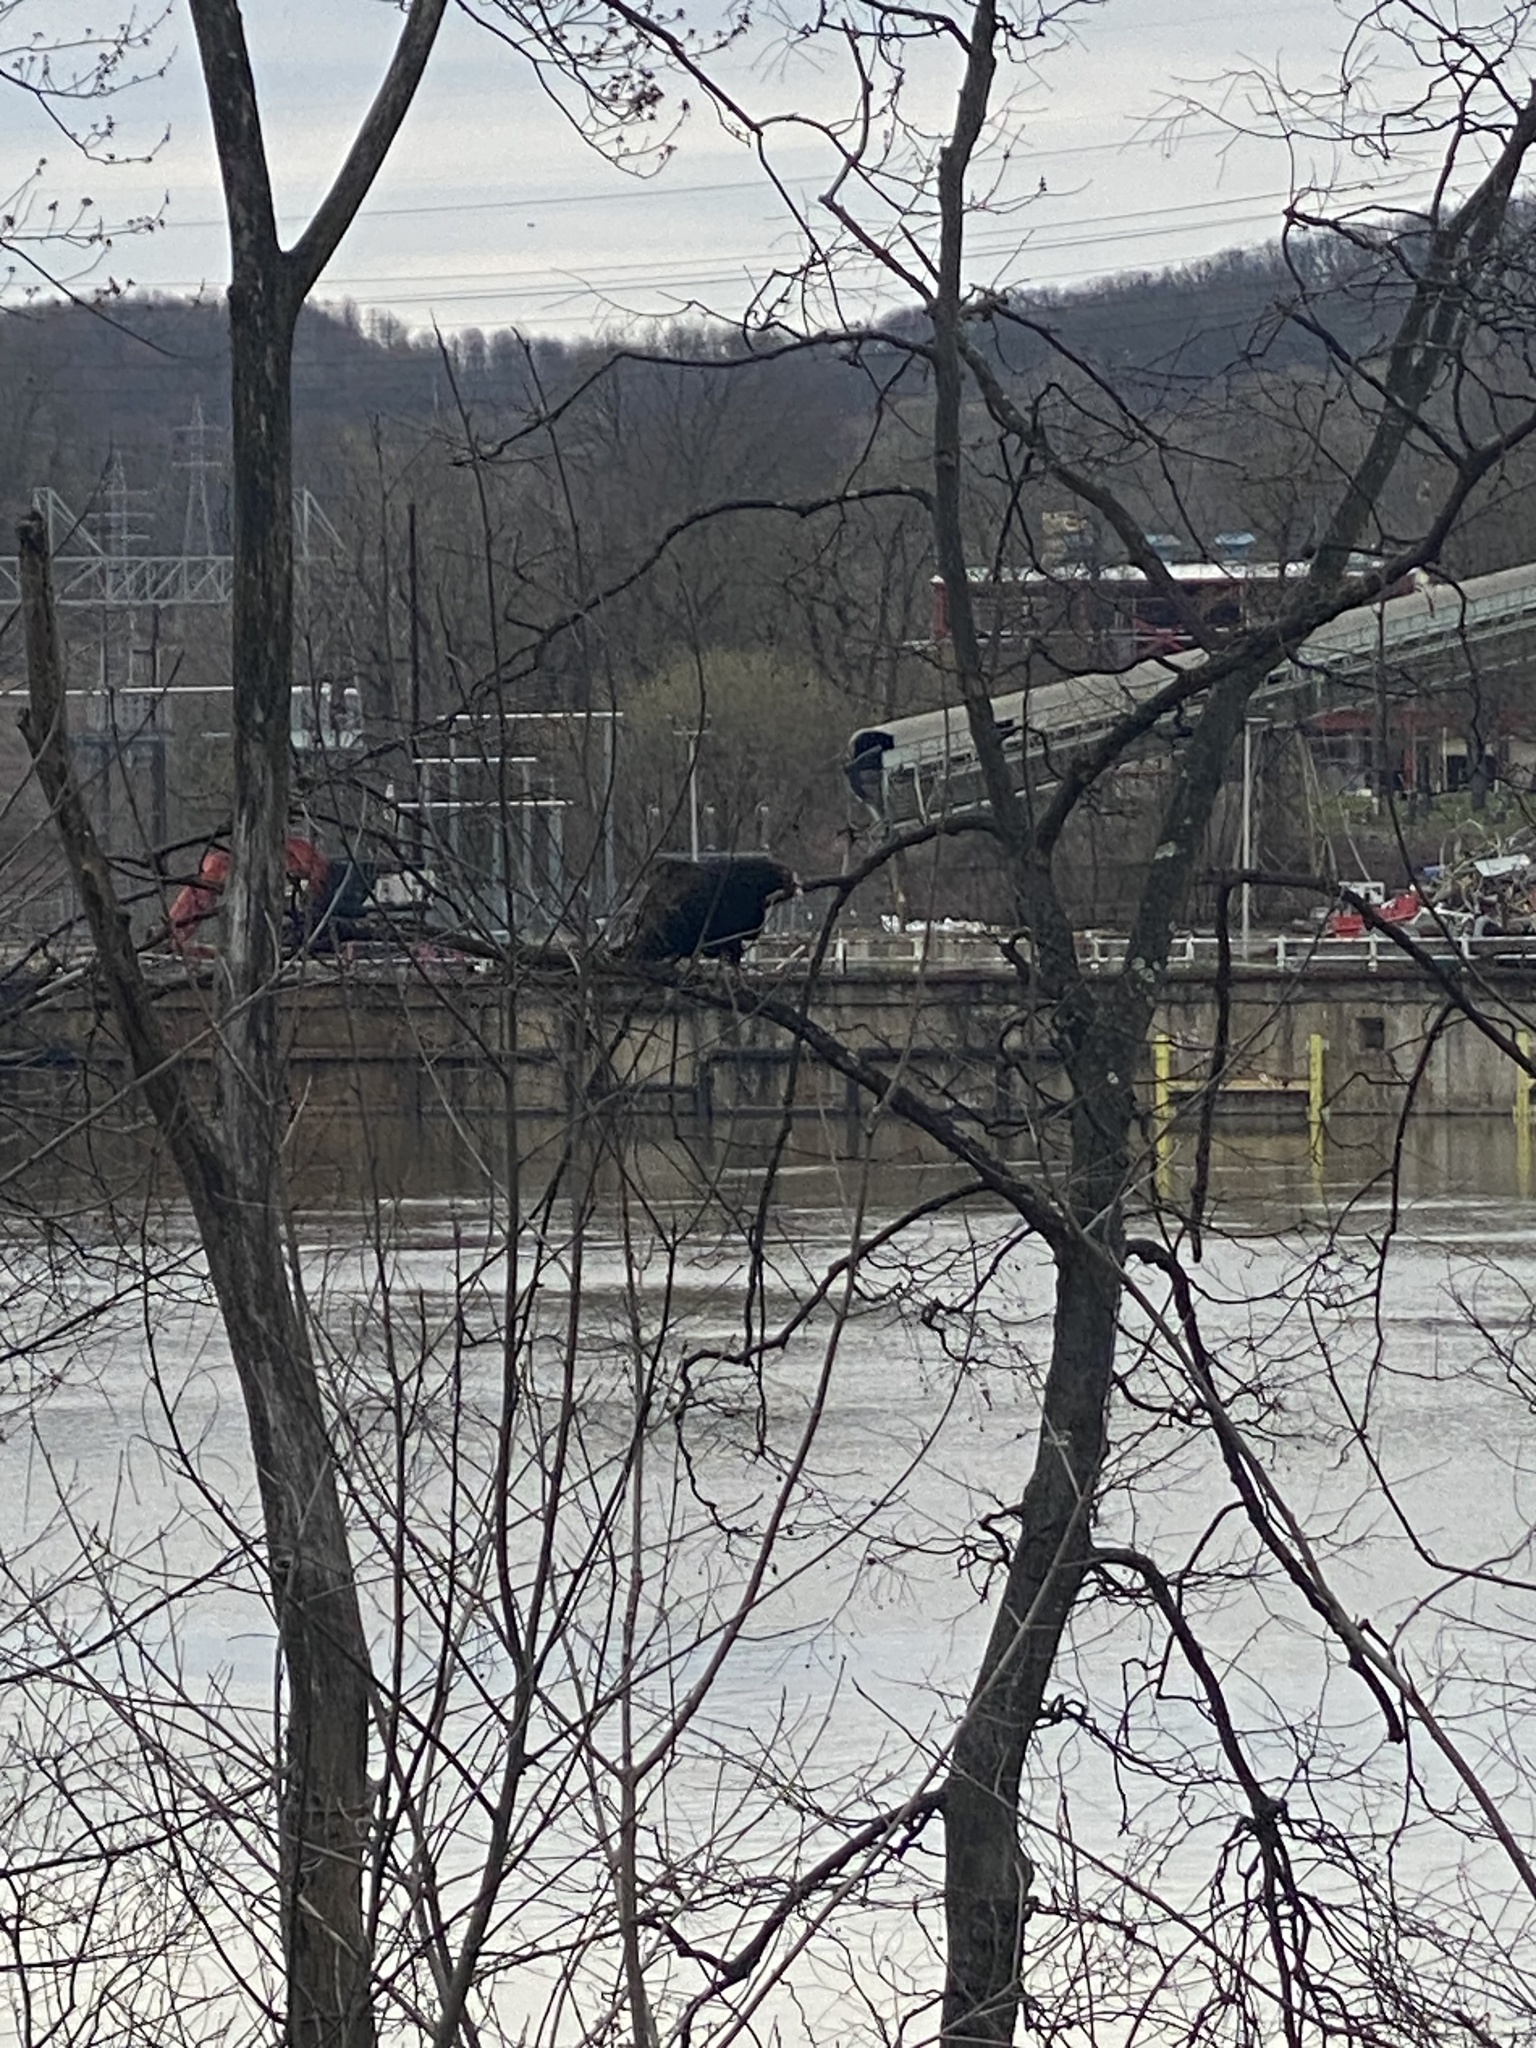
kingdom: Animalia
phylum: Chordata
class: Aves
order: Accipitriformes
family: Cathartidae
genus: Cathartes
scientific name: Cathartes aura
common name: Turkey vulture
